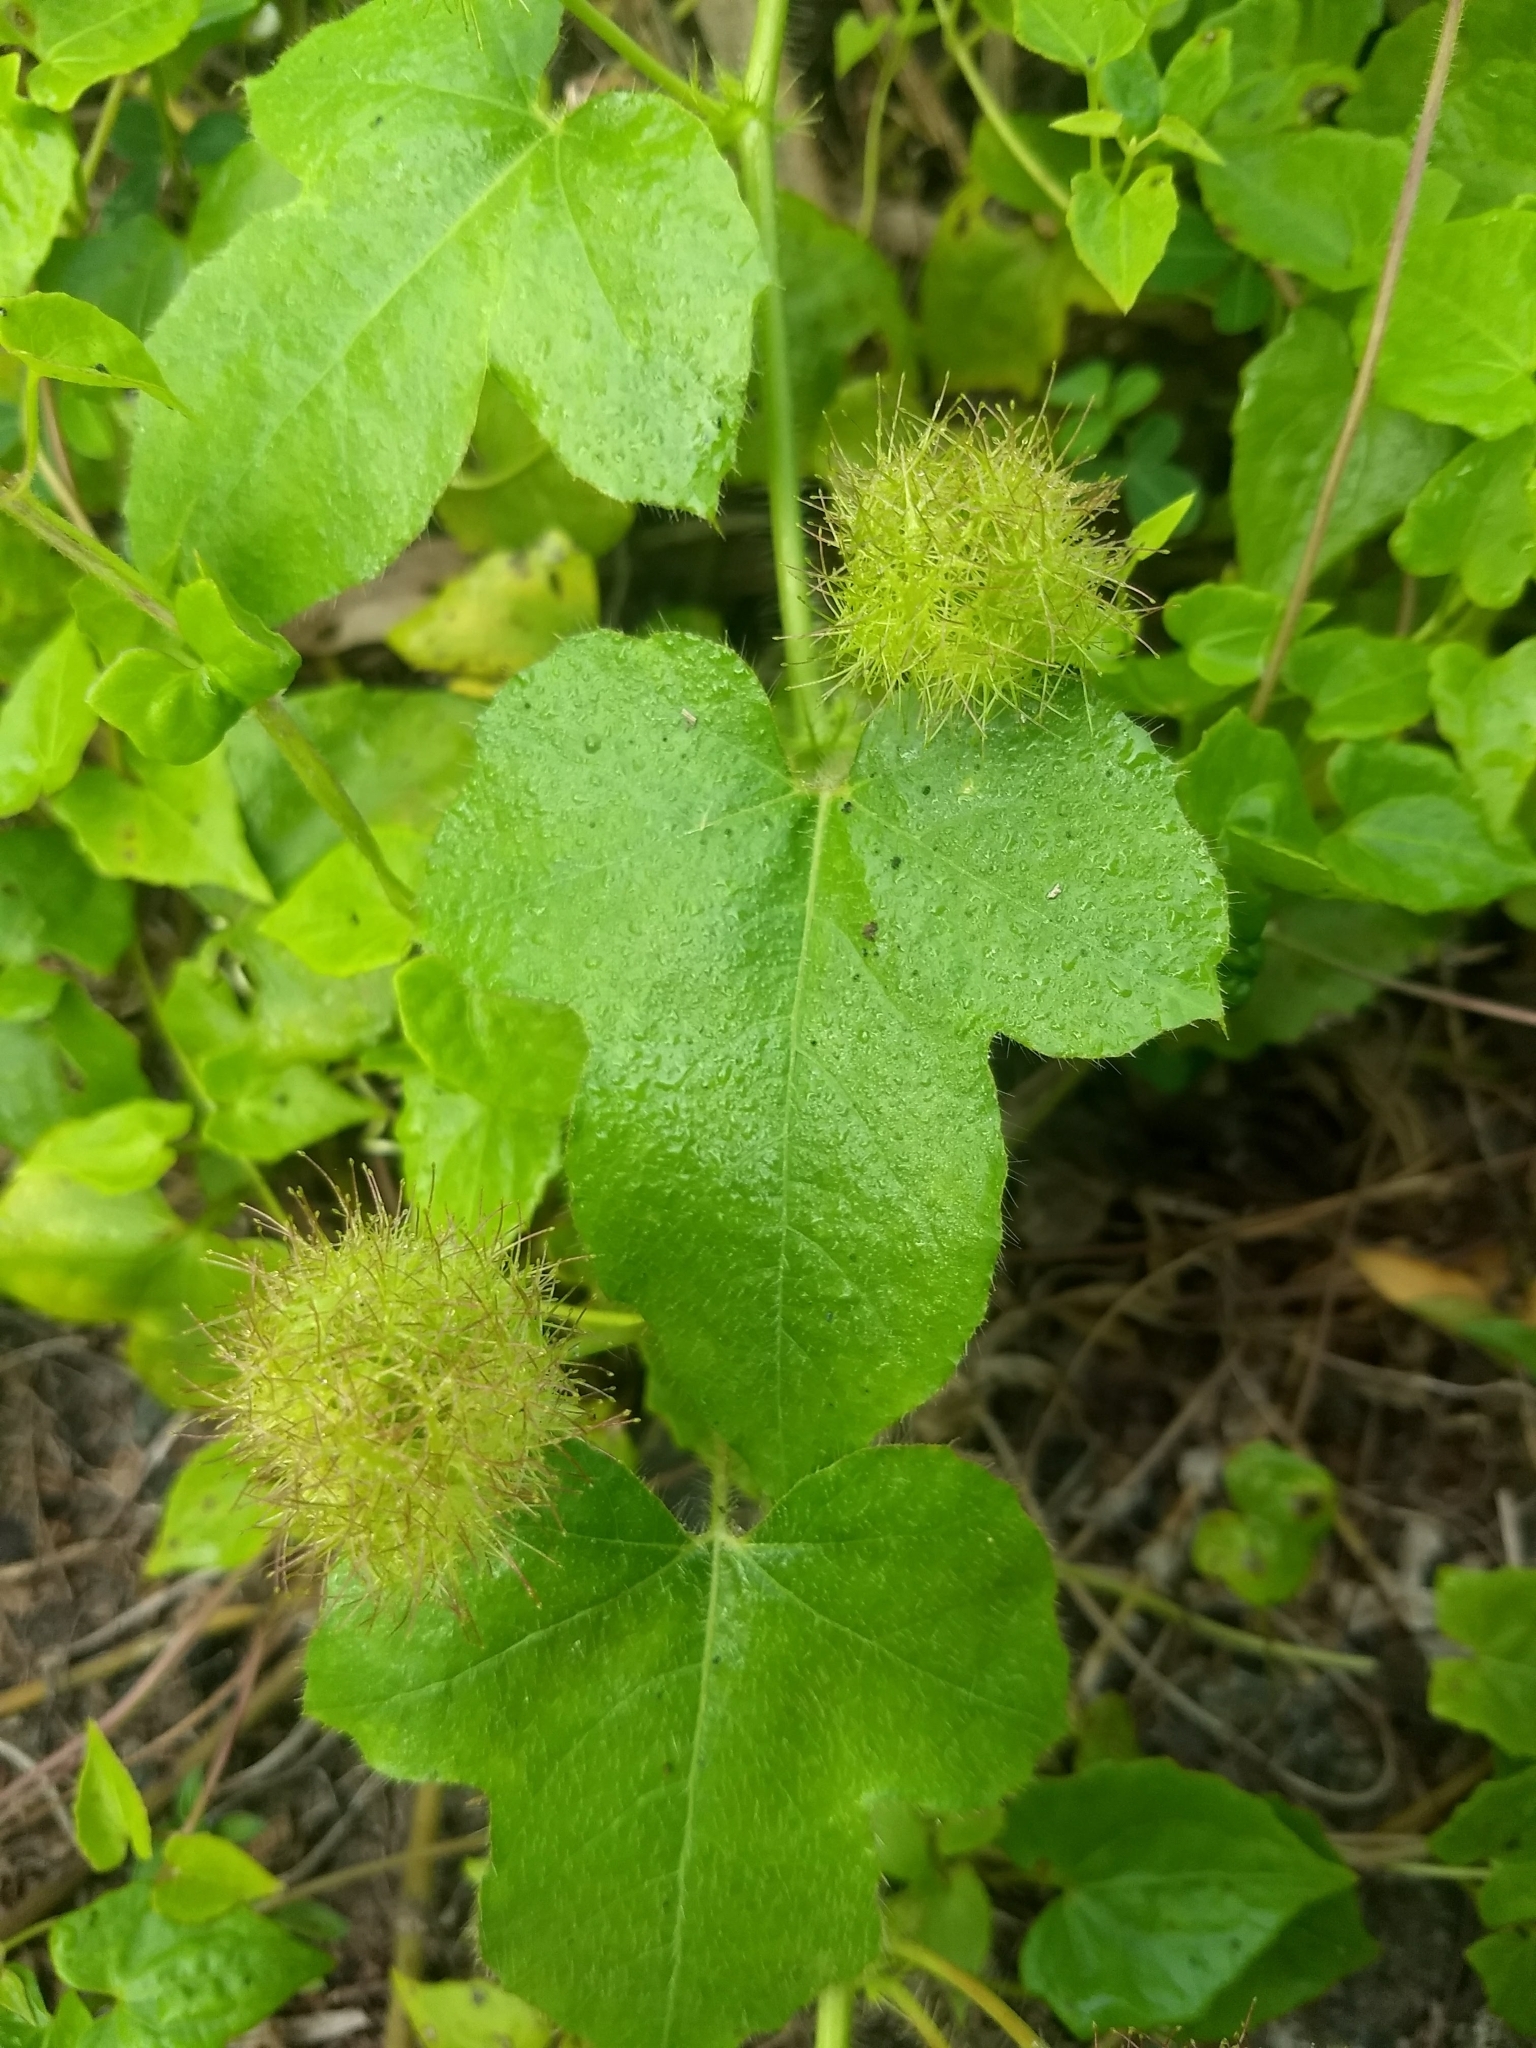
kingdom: Plantae
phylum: Tracheophyta
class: Magnoliopsida
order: Malpighiales
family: Passifloraceae
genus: Passiflora
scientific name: Passiflora foetida
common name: Fetid passionflower
